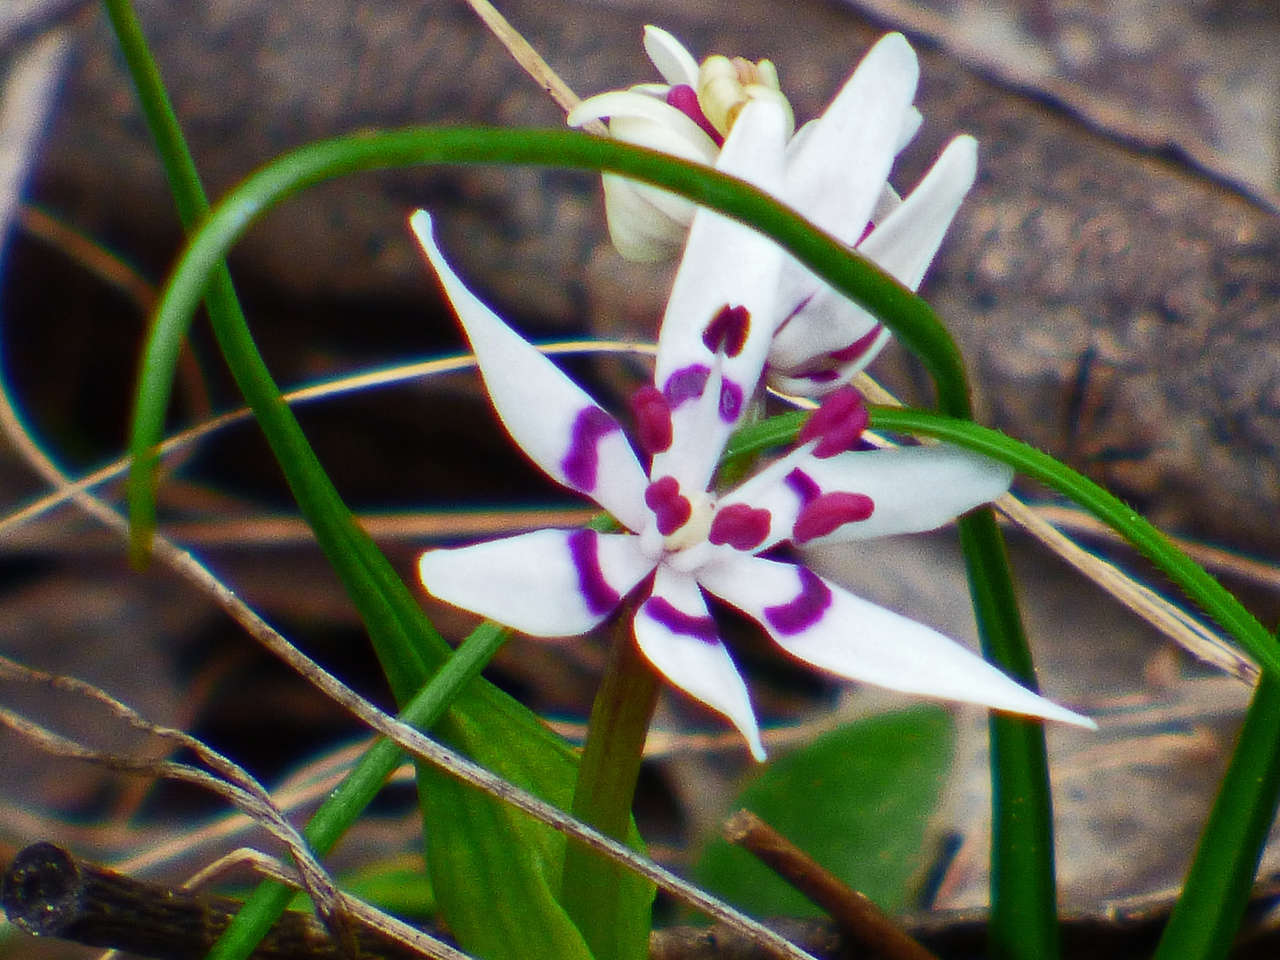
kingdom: Plantae
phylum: Tracheophyta
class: Liliopsida
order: Liliales
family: Colchicaceae
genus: Wurmbea
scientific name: Wurmbea dioica
